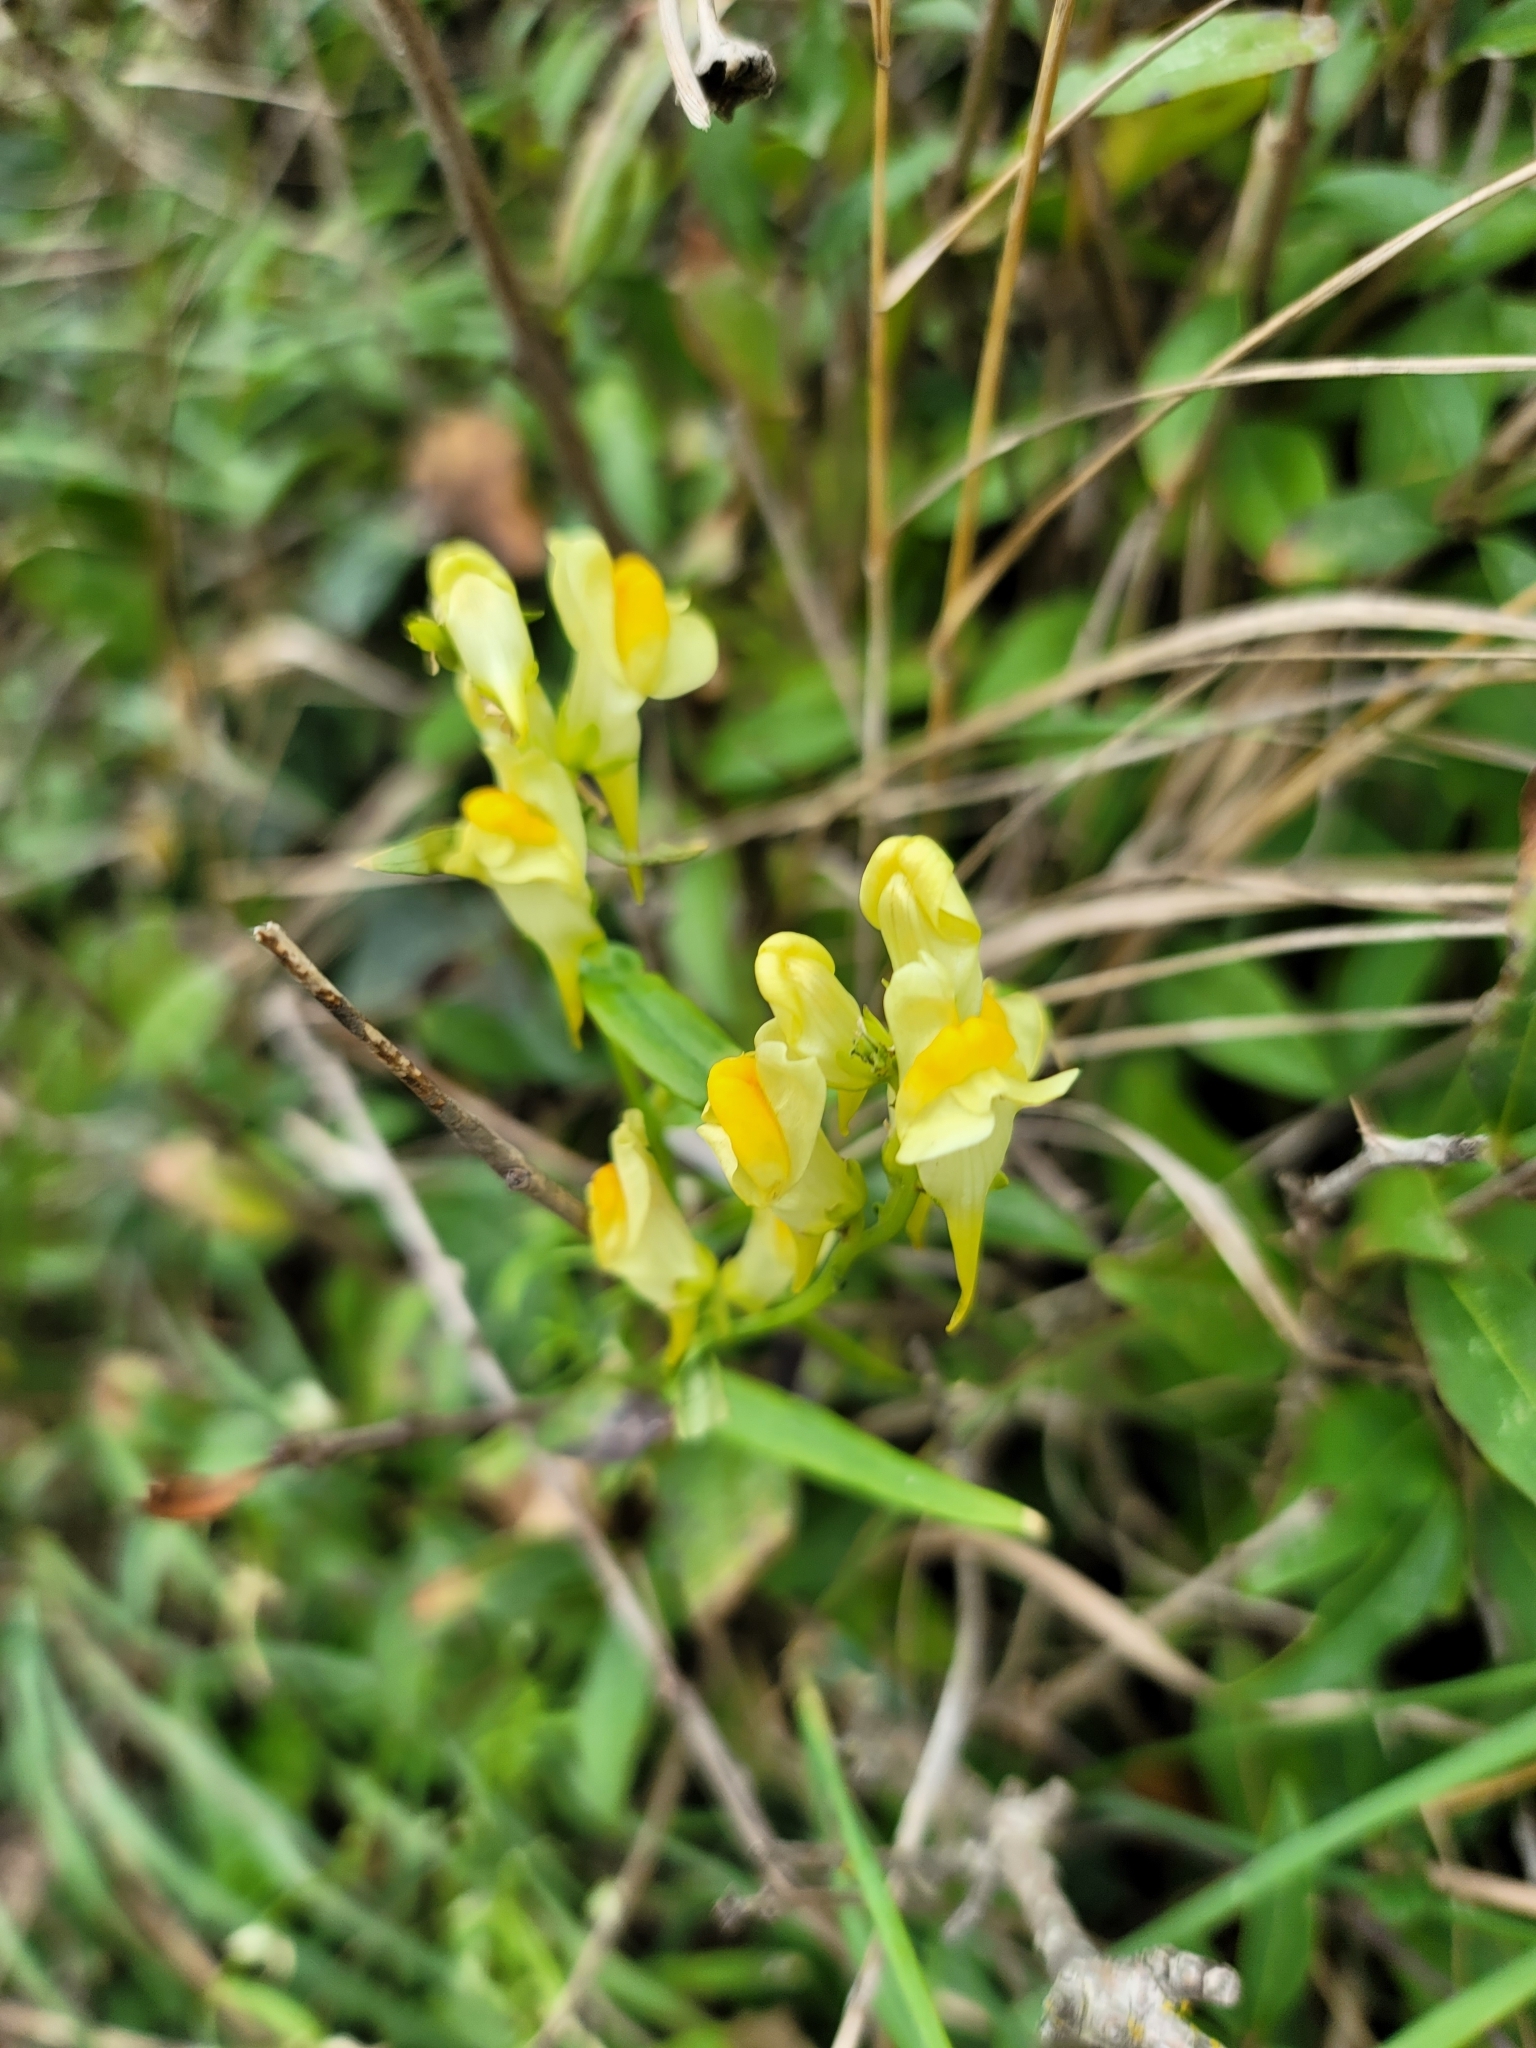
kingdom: Plantae
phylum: Tracheophyta
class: Magnoliopsida
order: Lamiales
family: Plantaginaceae
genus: Linaria
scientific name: Linaria vulgaris
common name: Butter and eggs
